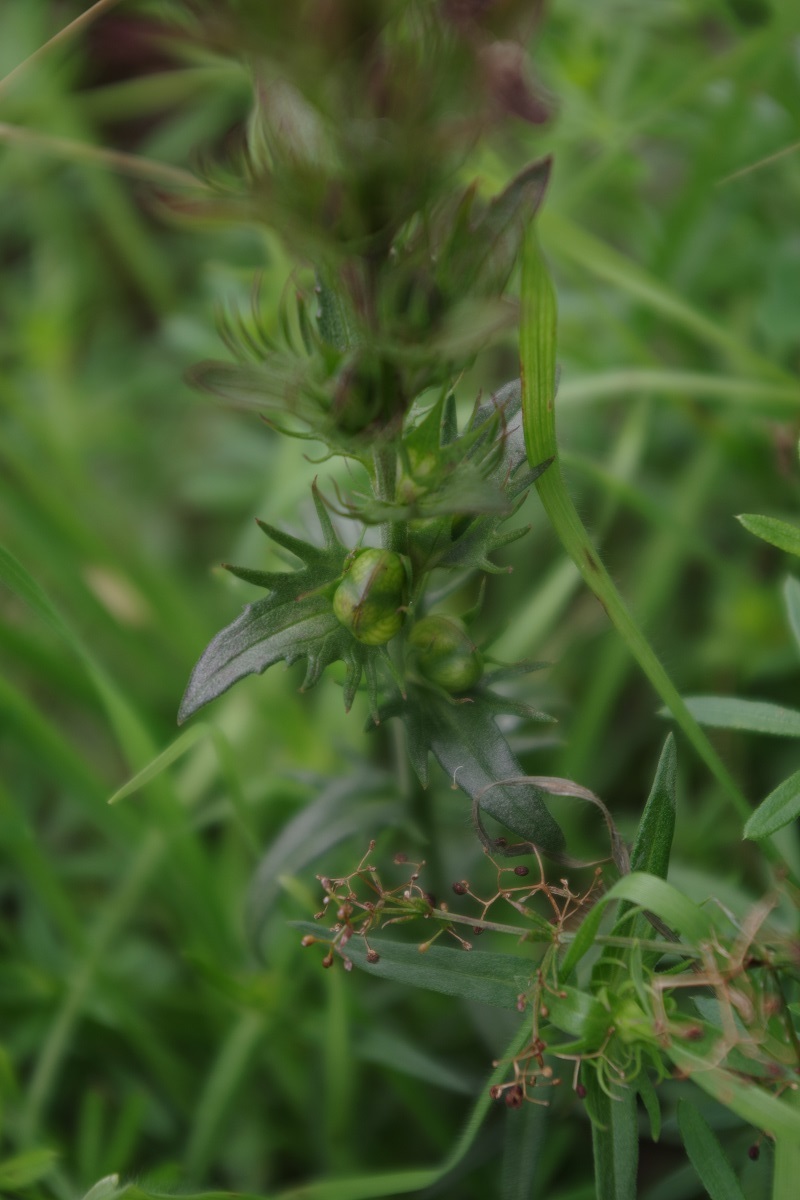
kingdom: Plantae
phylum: Tracheophyta
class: Magnoliopsida
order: Lamiales
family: Orobanchaceae
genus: Melampyrum
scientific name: Melampyrum arvense
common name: Field cow-wheat
